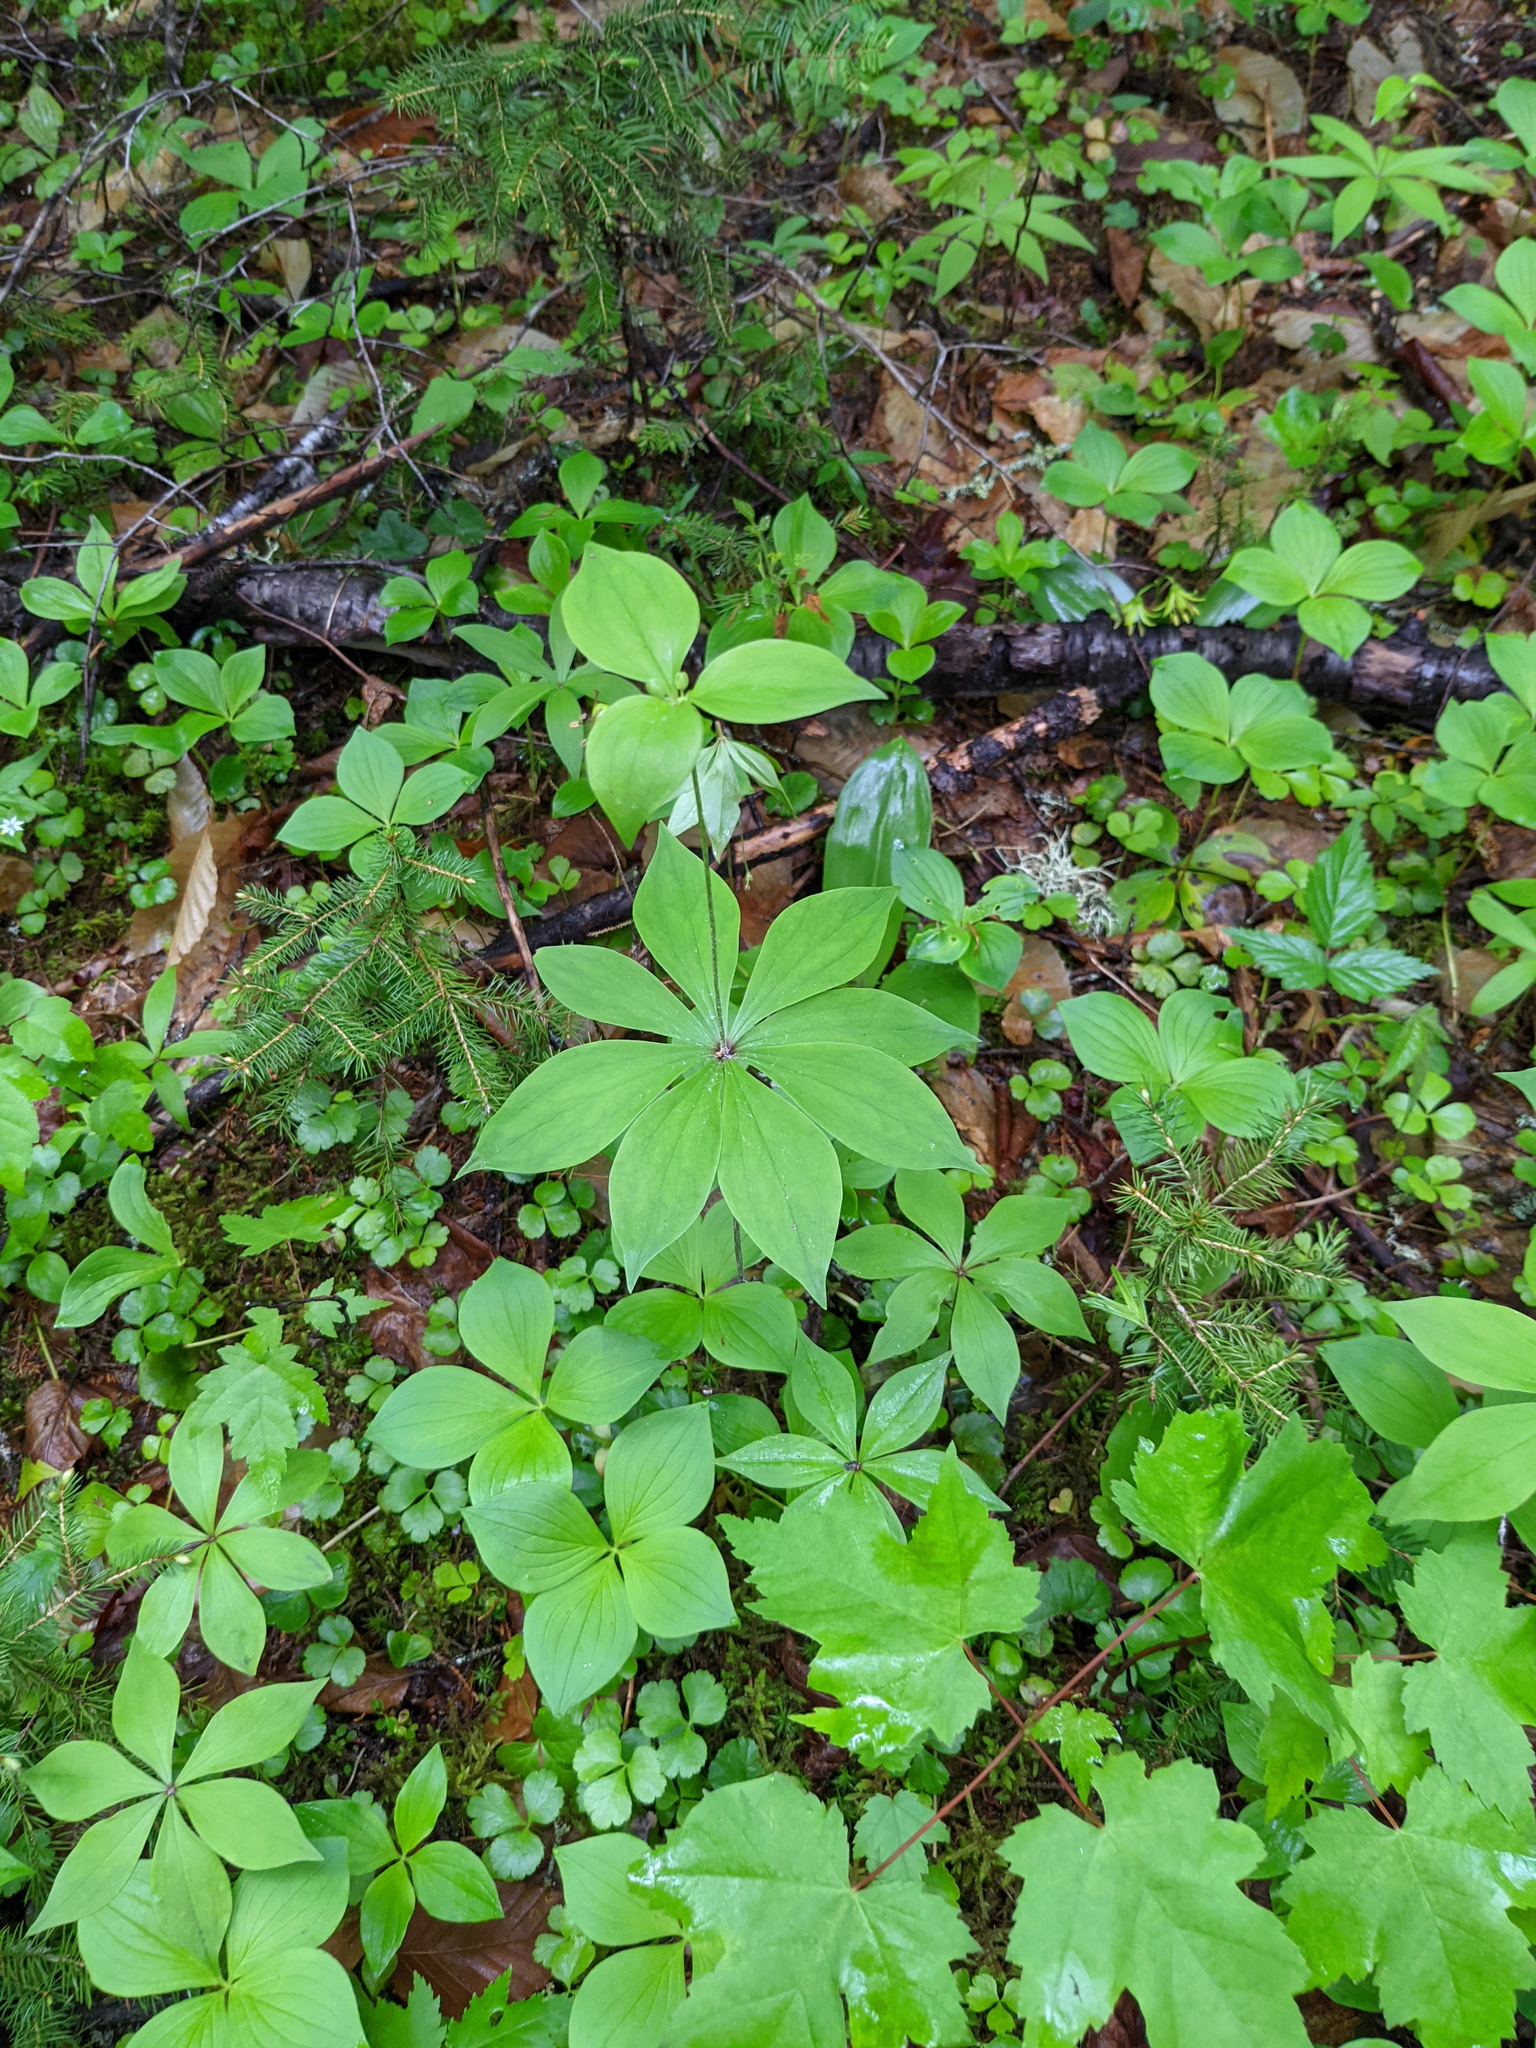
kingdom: Plantae
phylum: Tracheophyta
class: Liliopsida
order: Liliales
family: Liliaceae
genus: Medeola
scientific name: Medeola virginiana
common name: Indian cucumber-root
